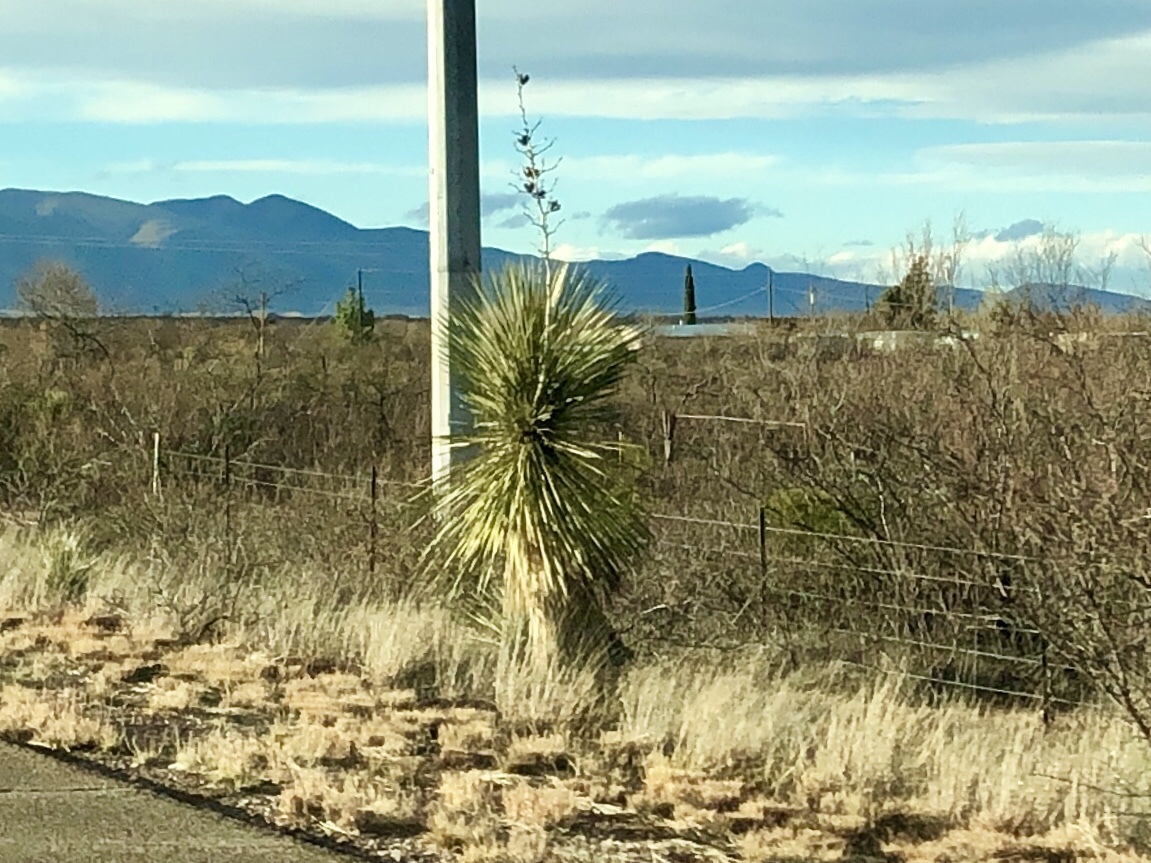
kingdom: Plantae
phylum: Tracheophyta
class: Liliopsida
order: Asparagales
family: Asparagaceae
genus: Yucca
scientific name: Yucca elata
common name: Palmella
